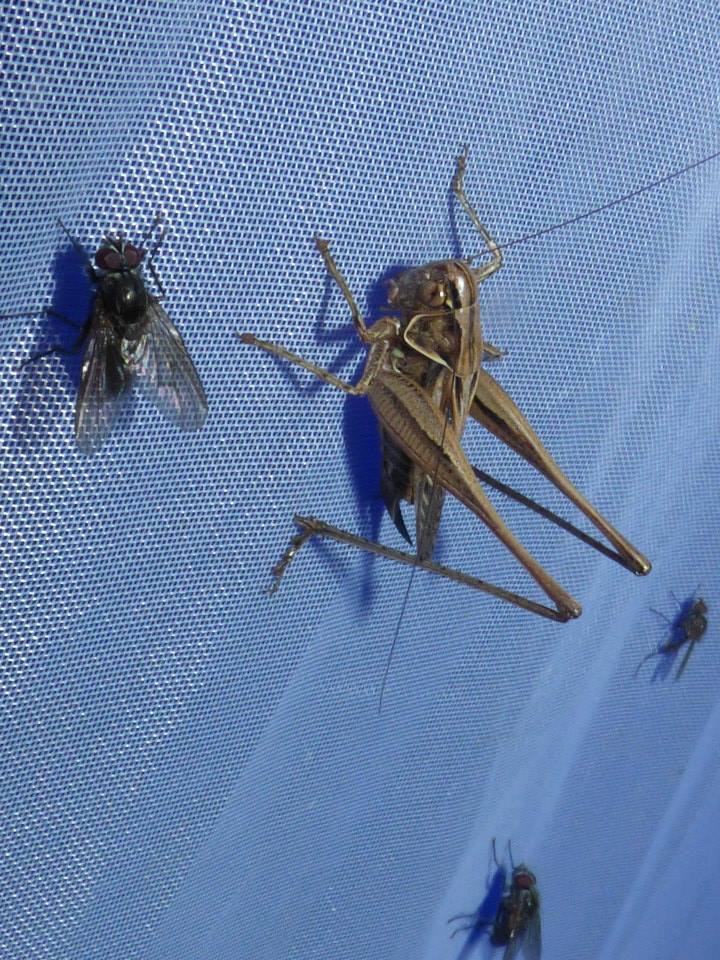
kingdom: Animalia
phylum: Arthropoda
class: Insecta
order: Orthoptera
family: Tettigoniidae
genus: Tessellana
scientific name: Tessellana tessellata
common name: Grasshopper
